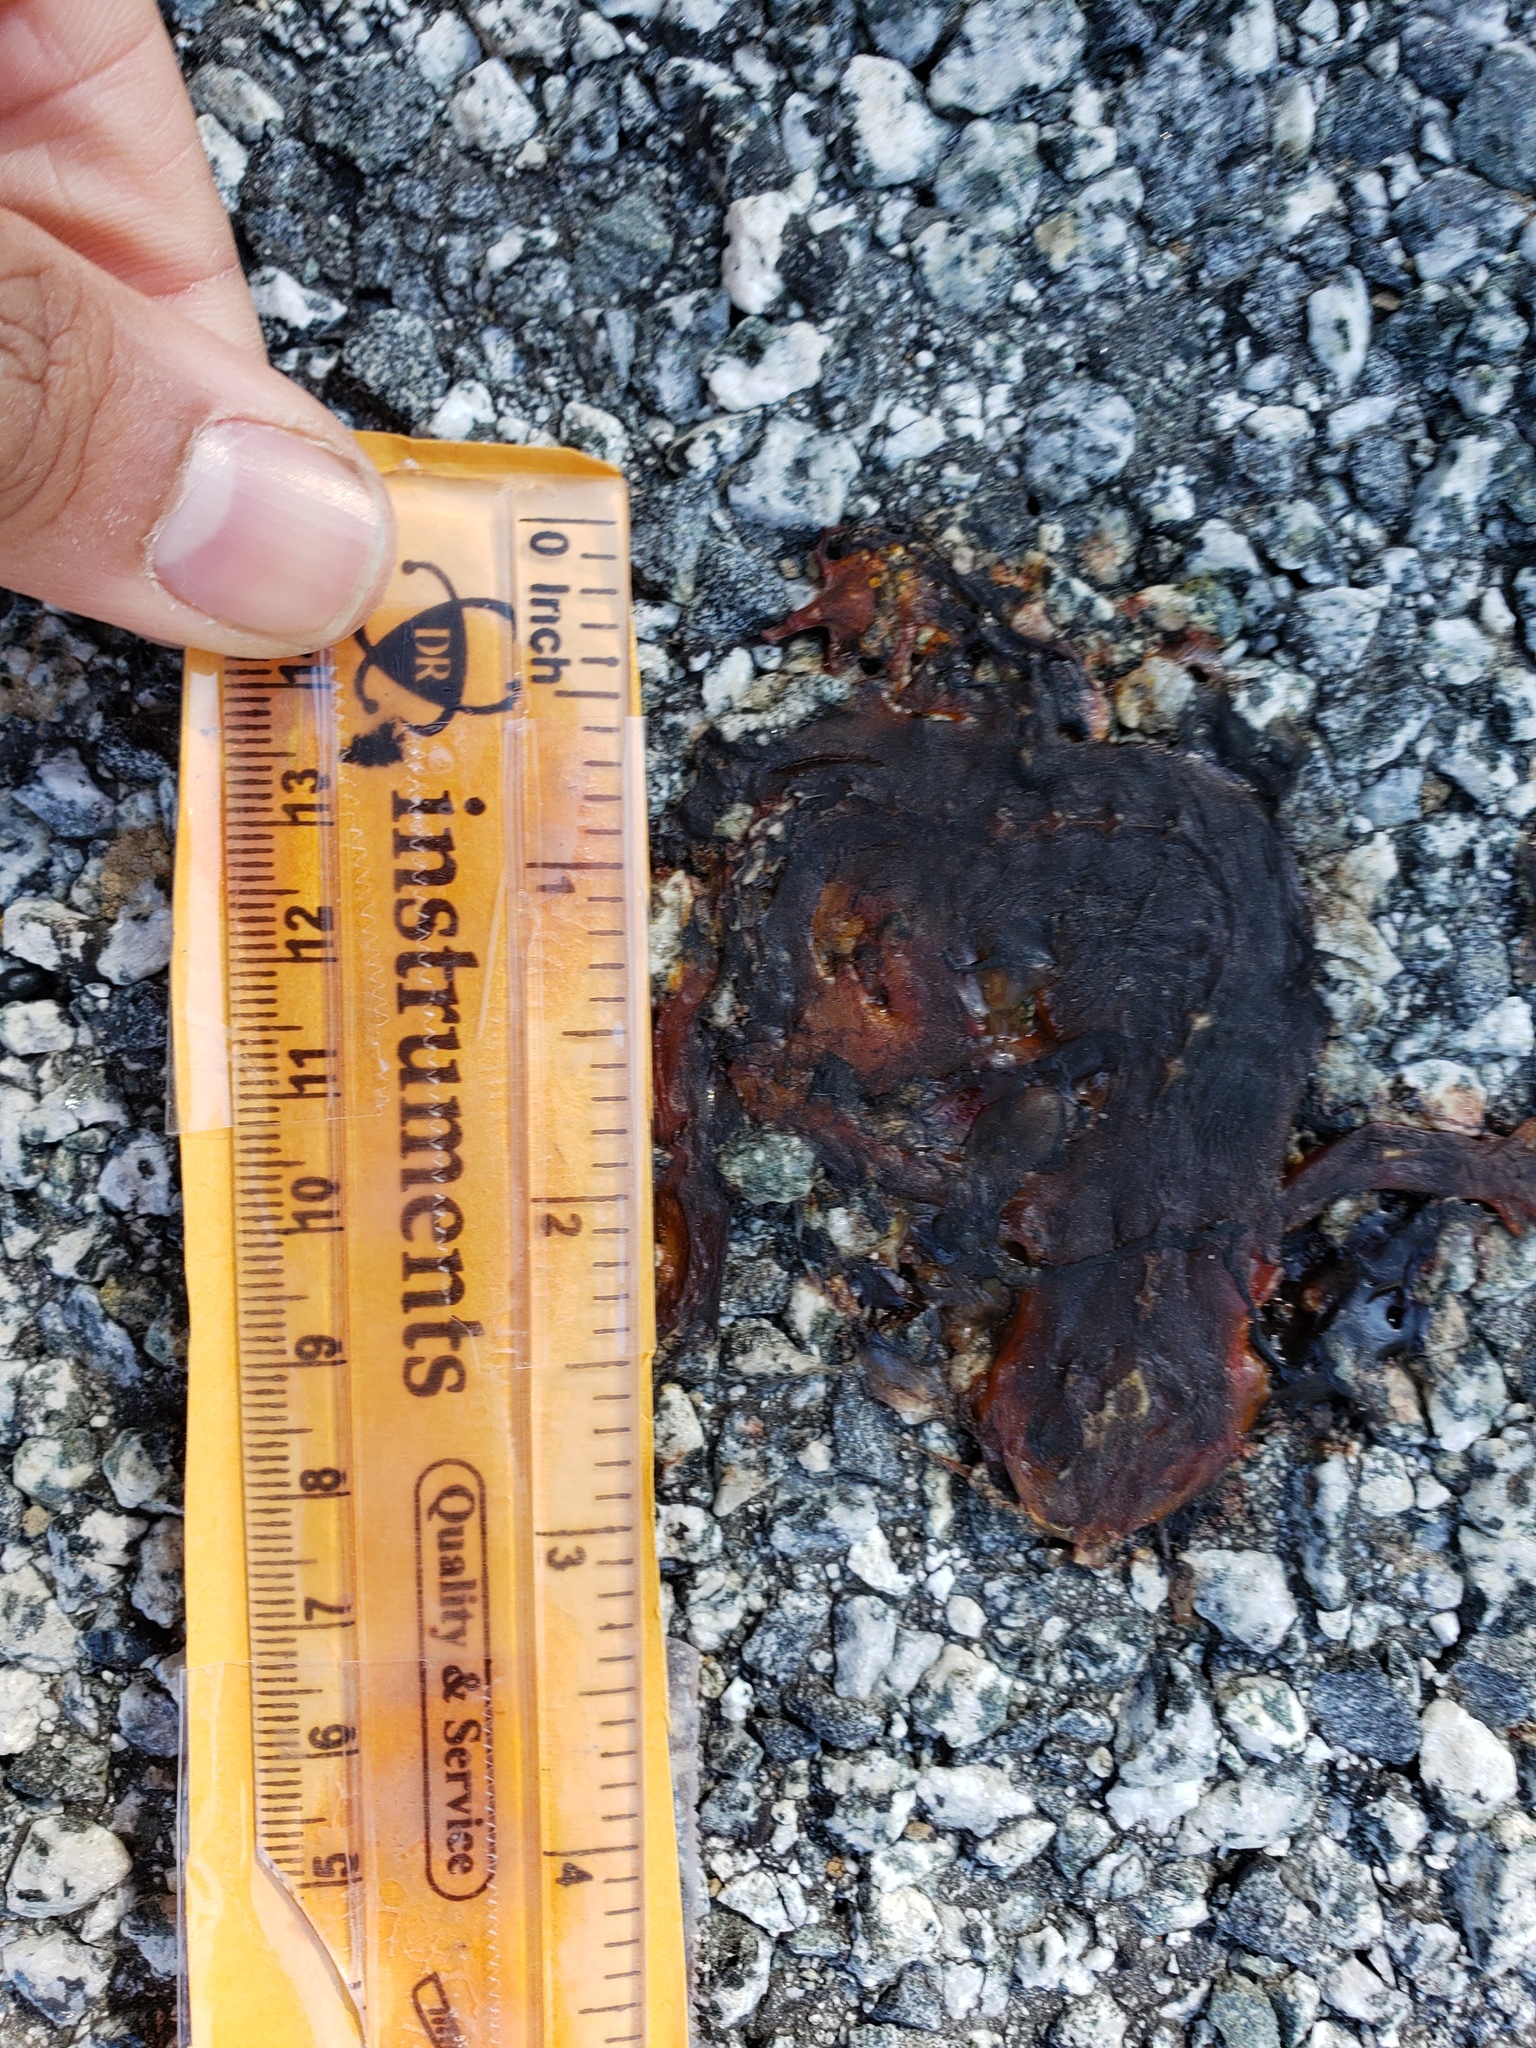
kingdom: Animalia
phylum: Chordata
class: Amphibia
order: Caudata
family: Salamandridae
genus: Taricha
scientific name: Taricha
